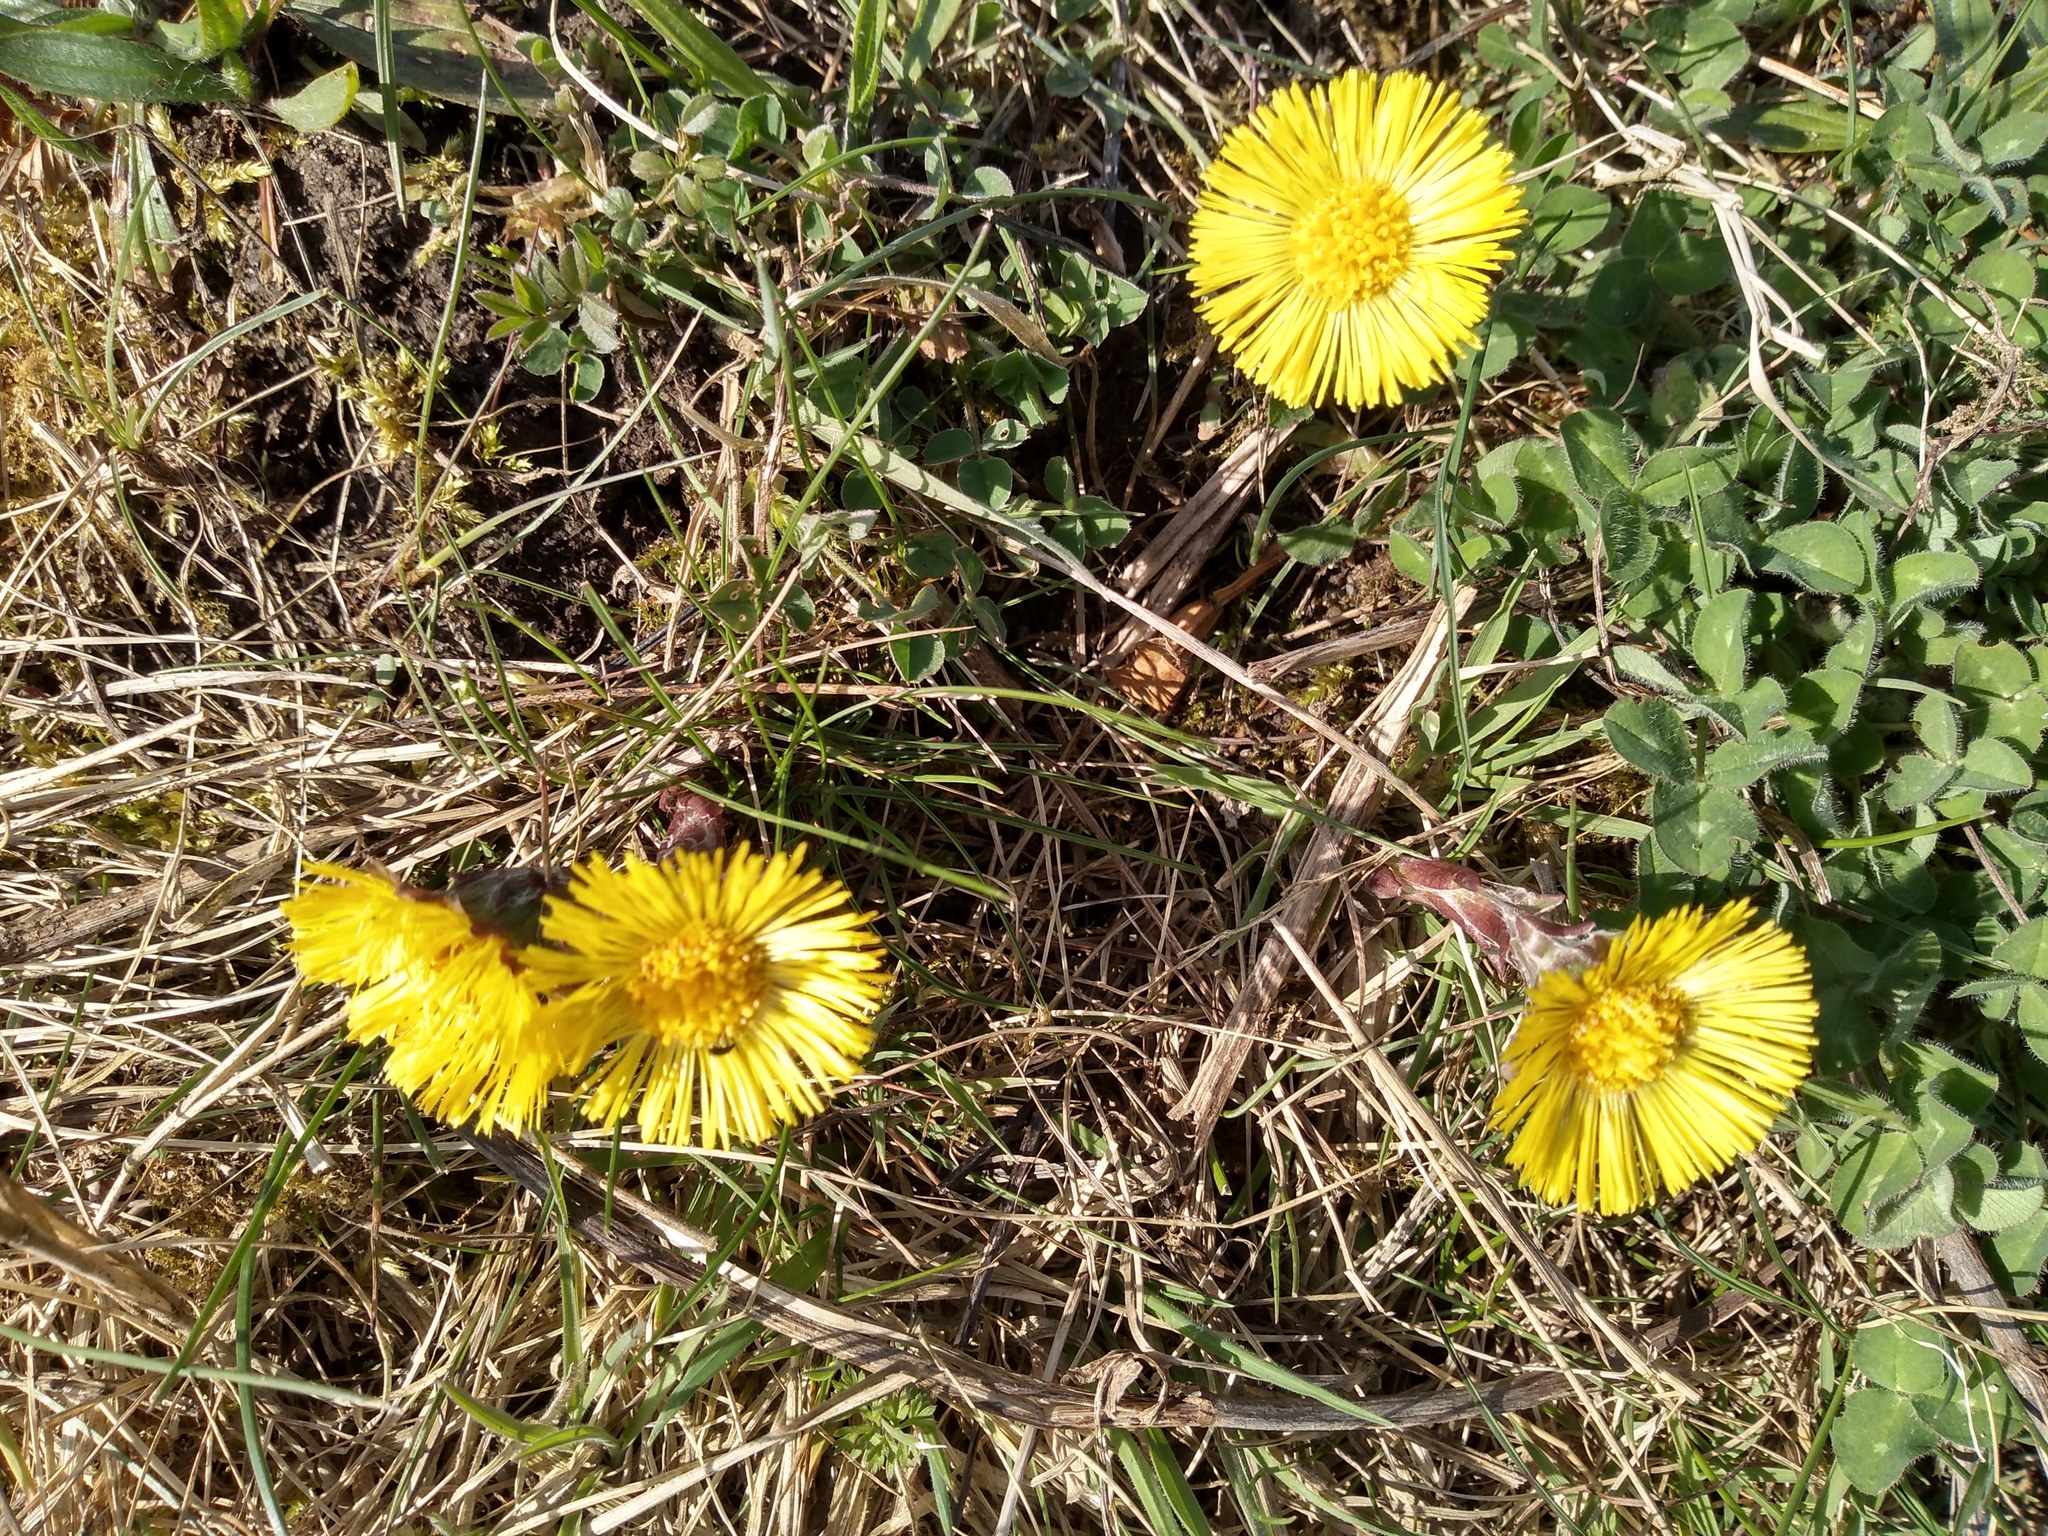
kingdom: Plantae
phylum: Tracheophyta
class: Magnoliopsida
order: Asterales
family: Asteraceae
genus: Tussilago
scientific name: Tussilago farfara
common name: Coltsfoot
